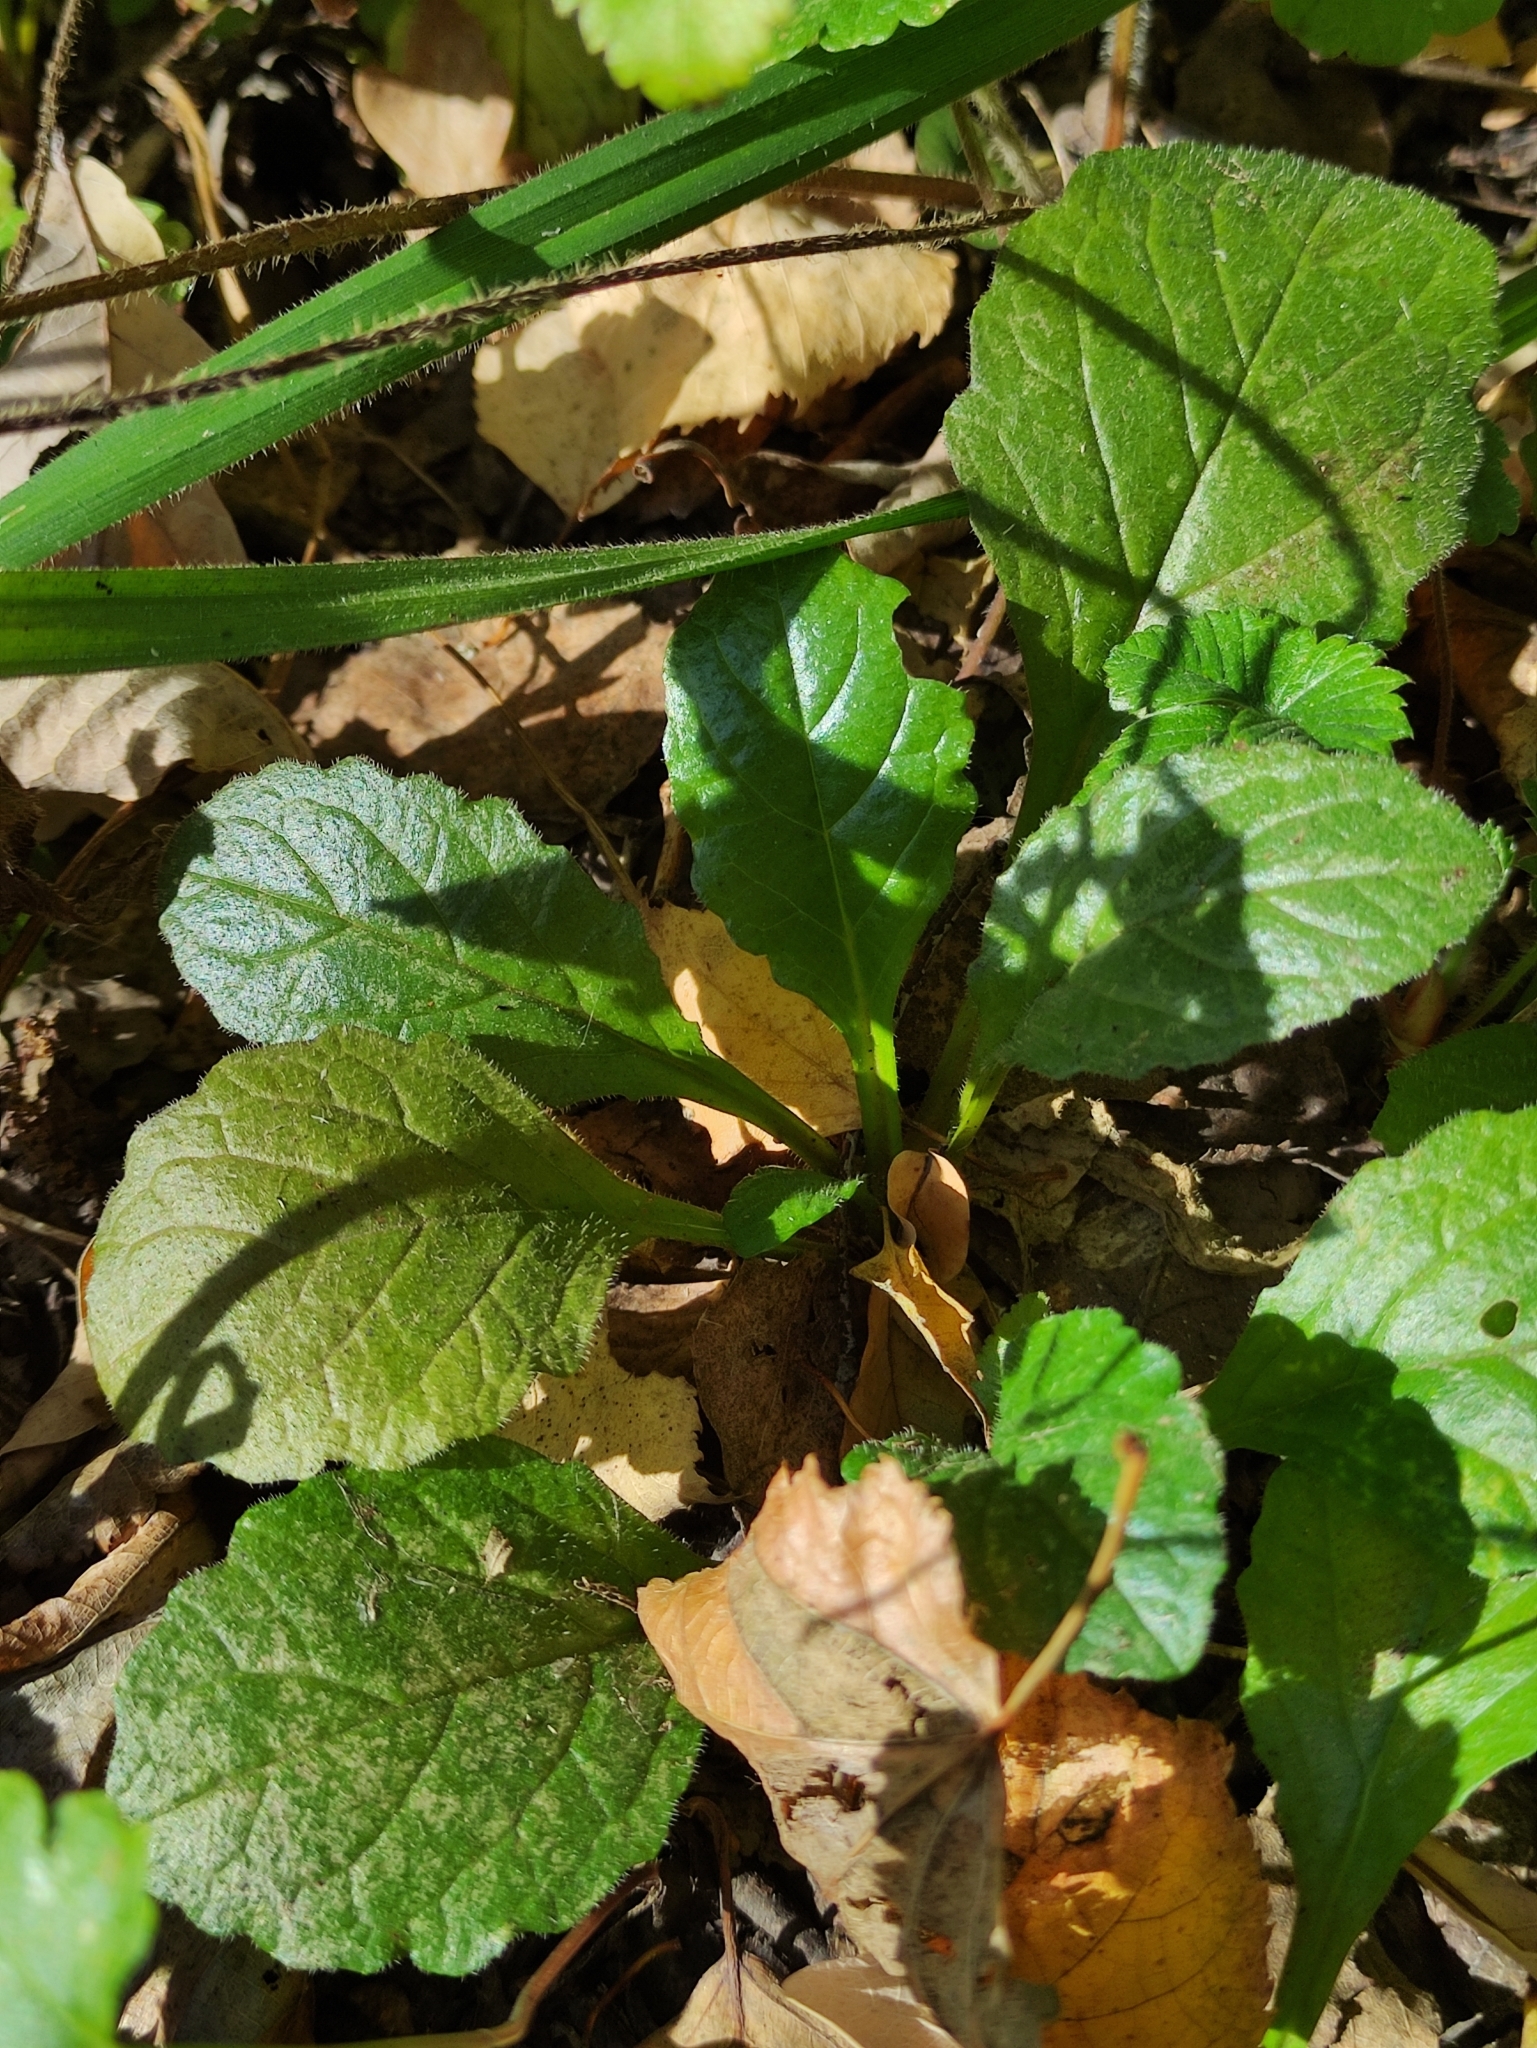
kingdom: Plantae
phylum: Tracheophyta
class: Magnoliopsida
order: Lamiales
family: Lamiaceae
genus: Ajuga
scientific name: Ajuga reptans
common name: Bugle
